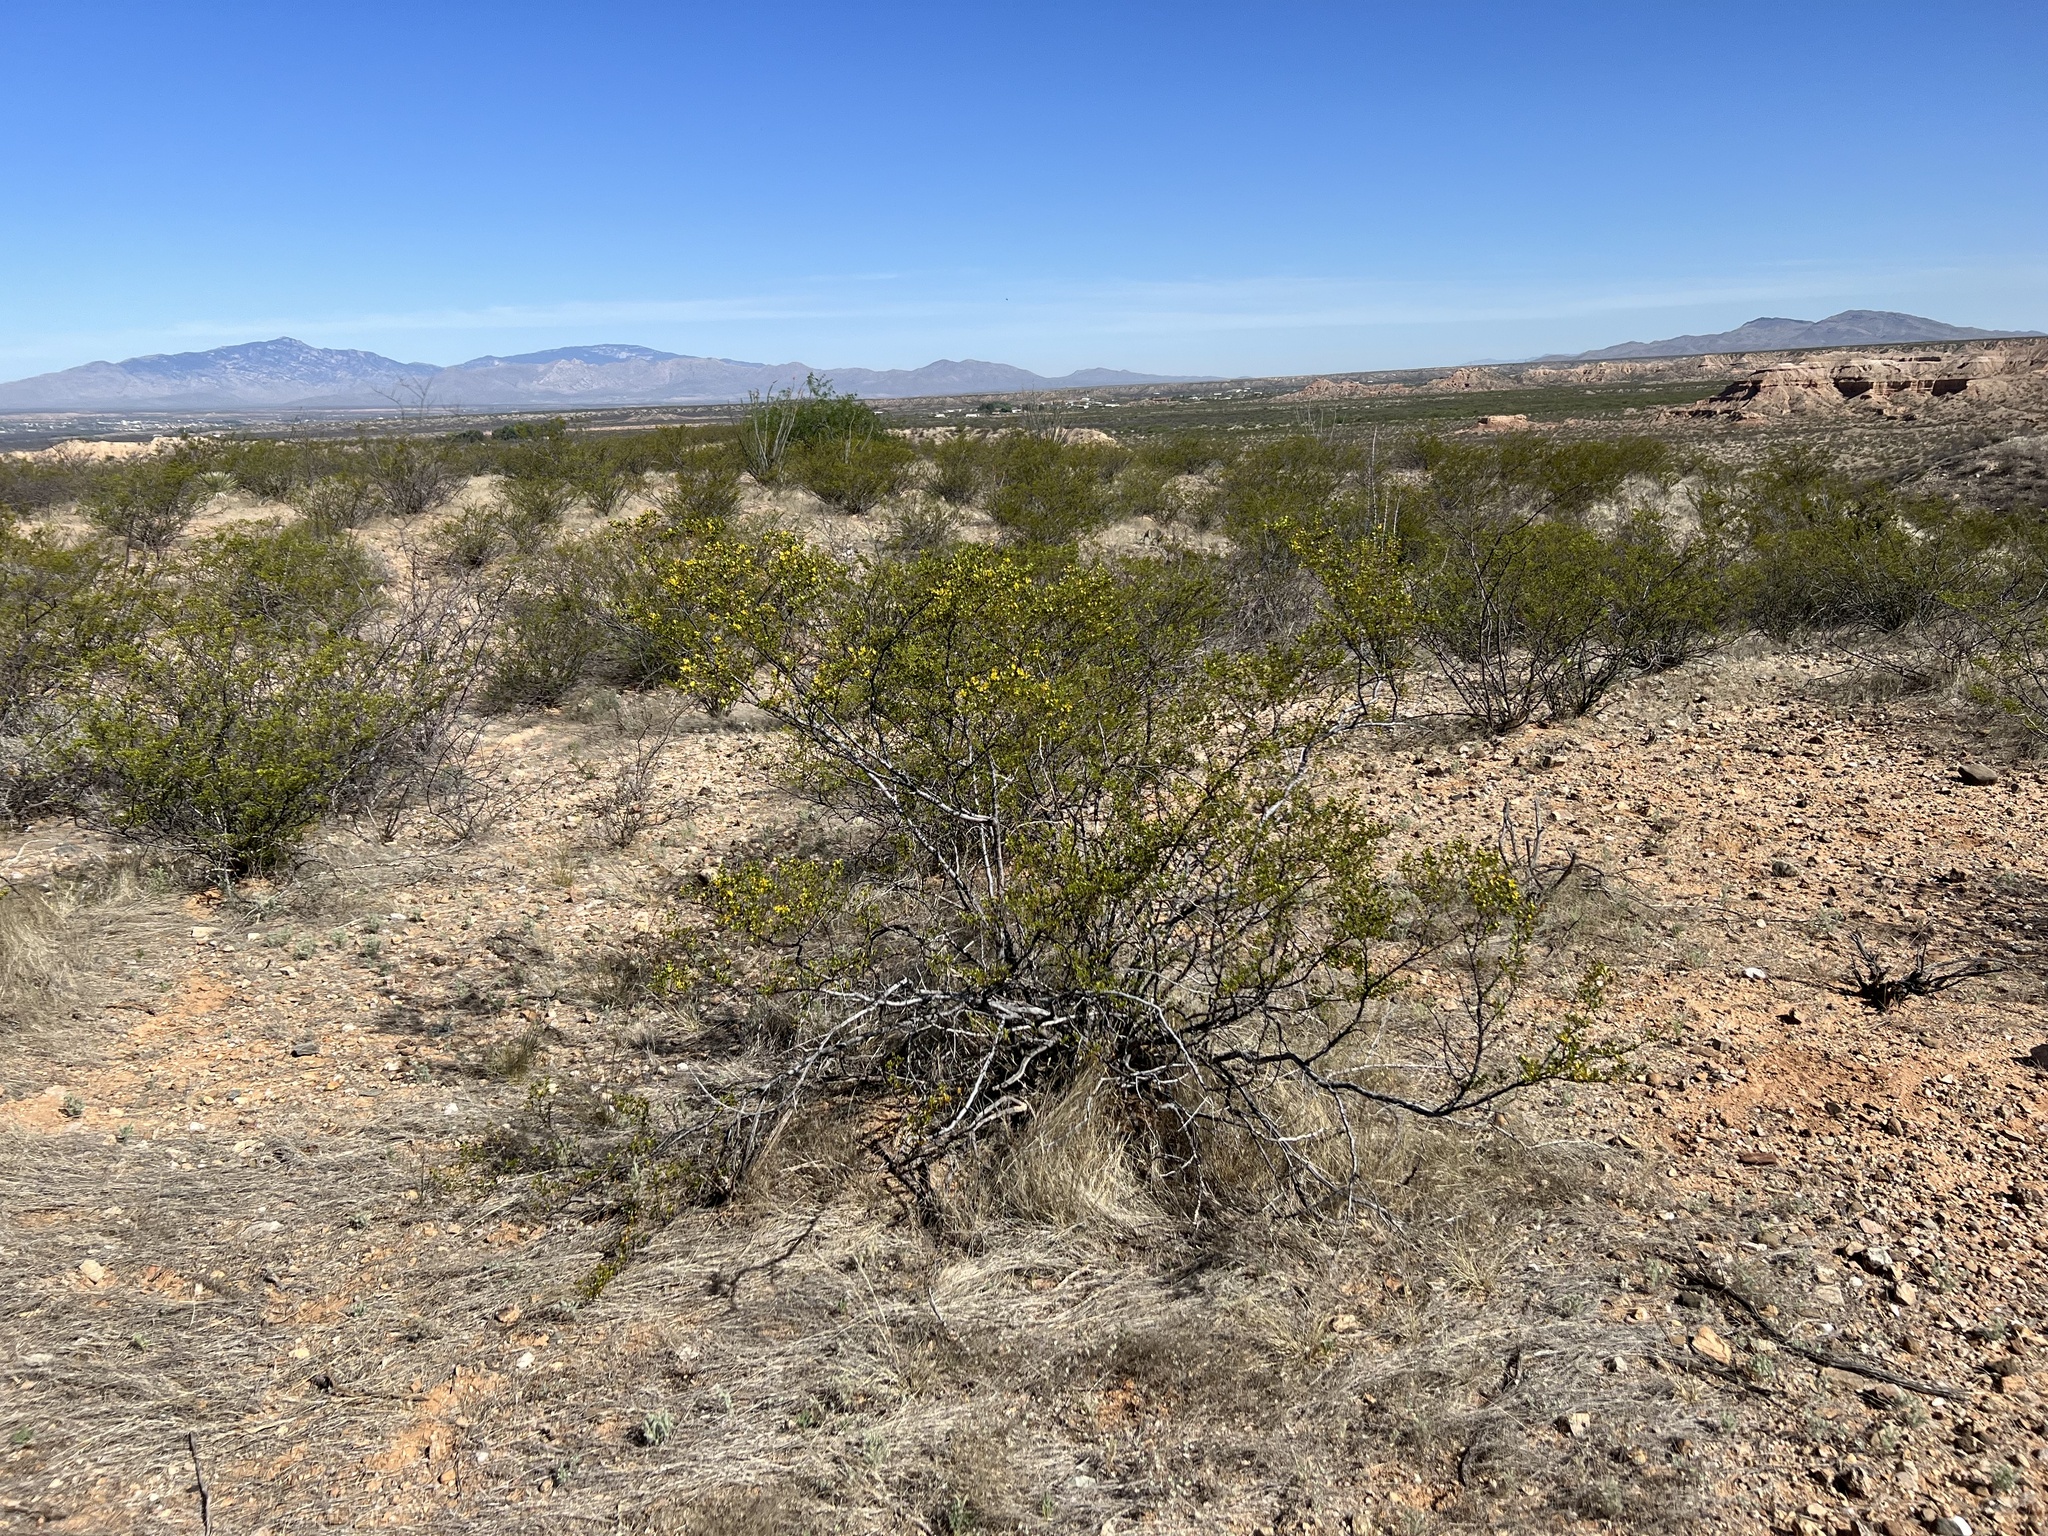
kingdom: Plantae
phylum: Tracheophyta
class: Magnoliopsida
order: Zygophyllales
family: Zygophyllaceae
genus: Larrea
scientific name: Larrea tridentata
